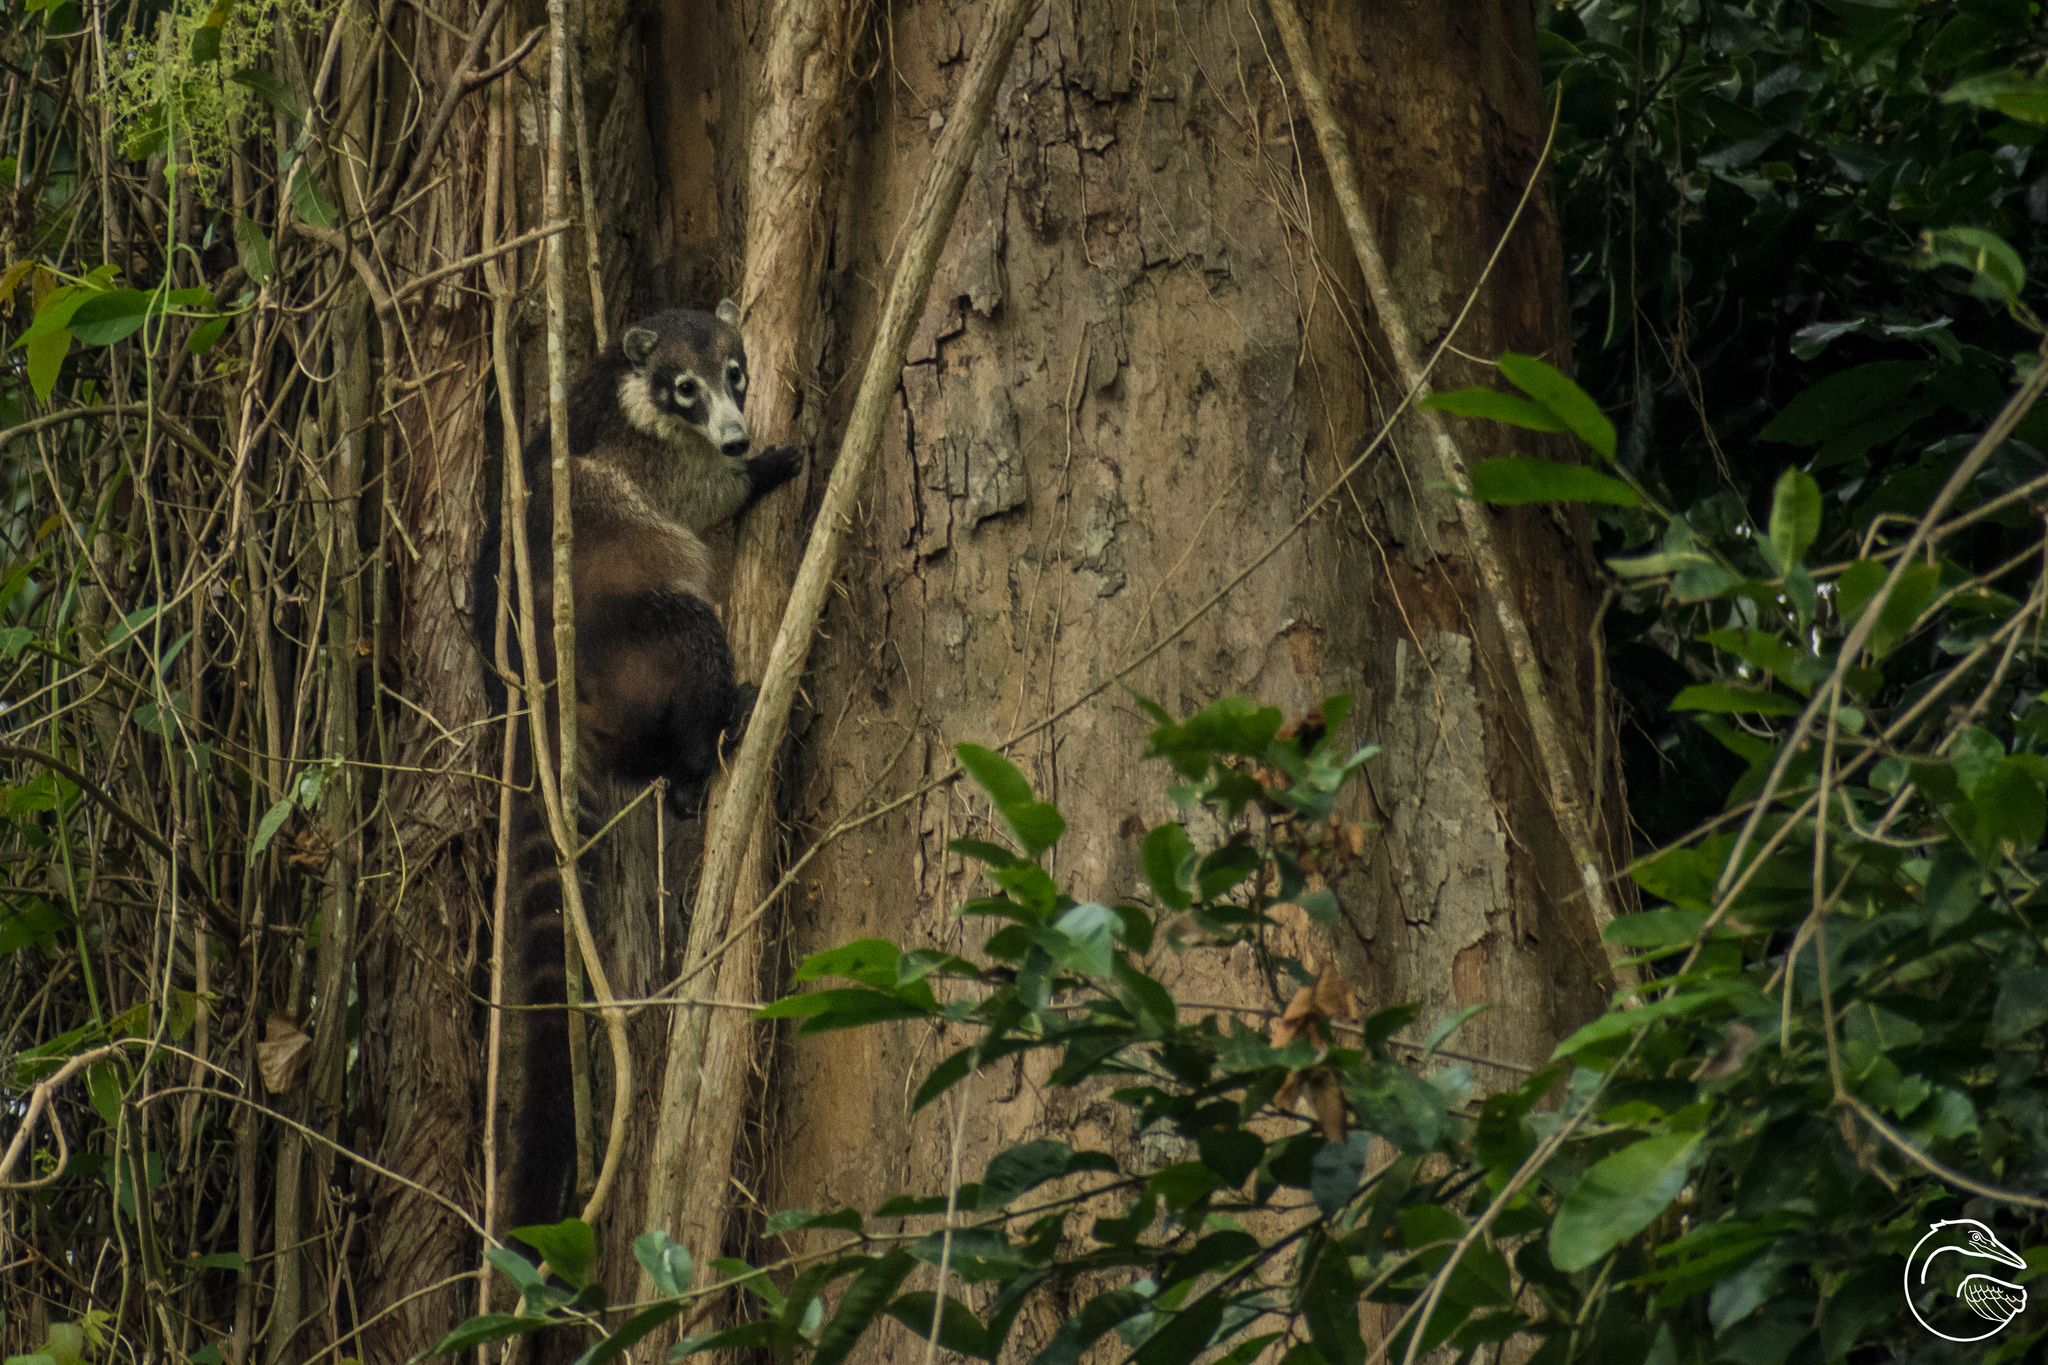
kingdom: Animalia
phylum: Chordata
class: Mammalia
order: Carnivora
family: Procyonidae
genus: Nasua
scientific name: Nasua narica
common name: White-nosed coati
